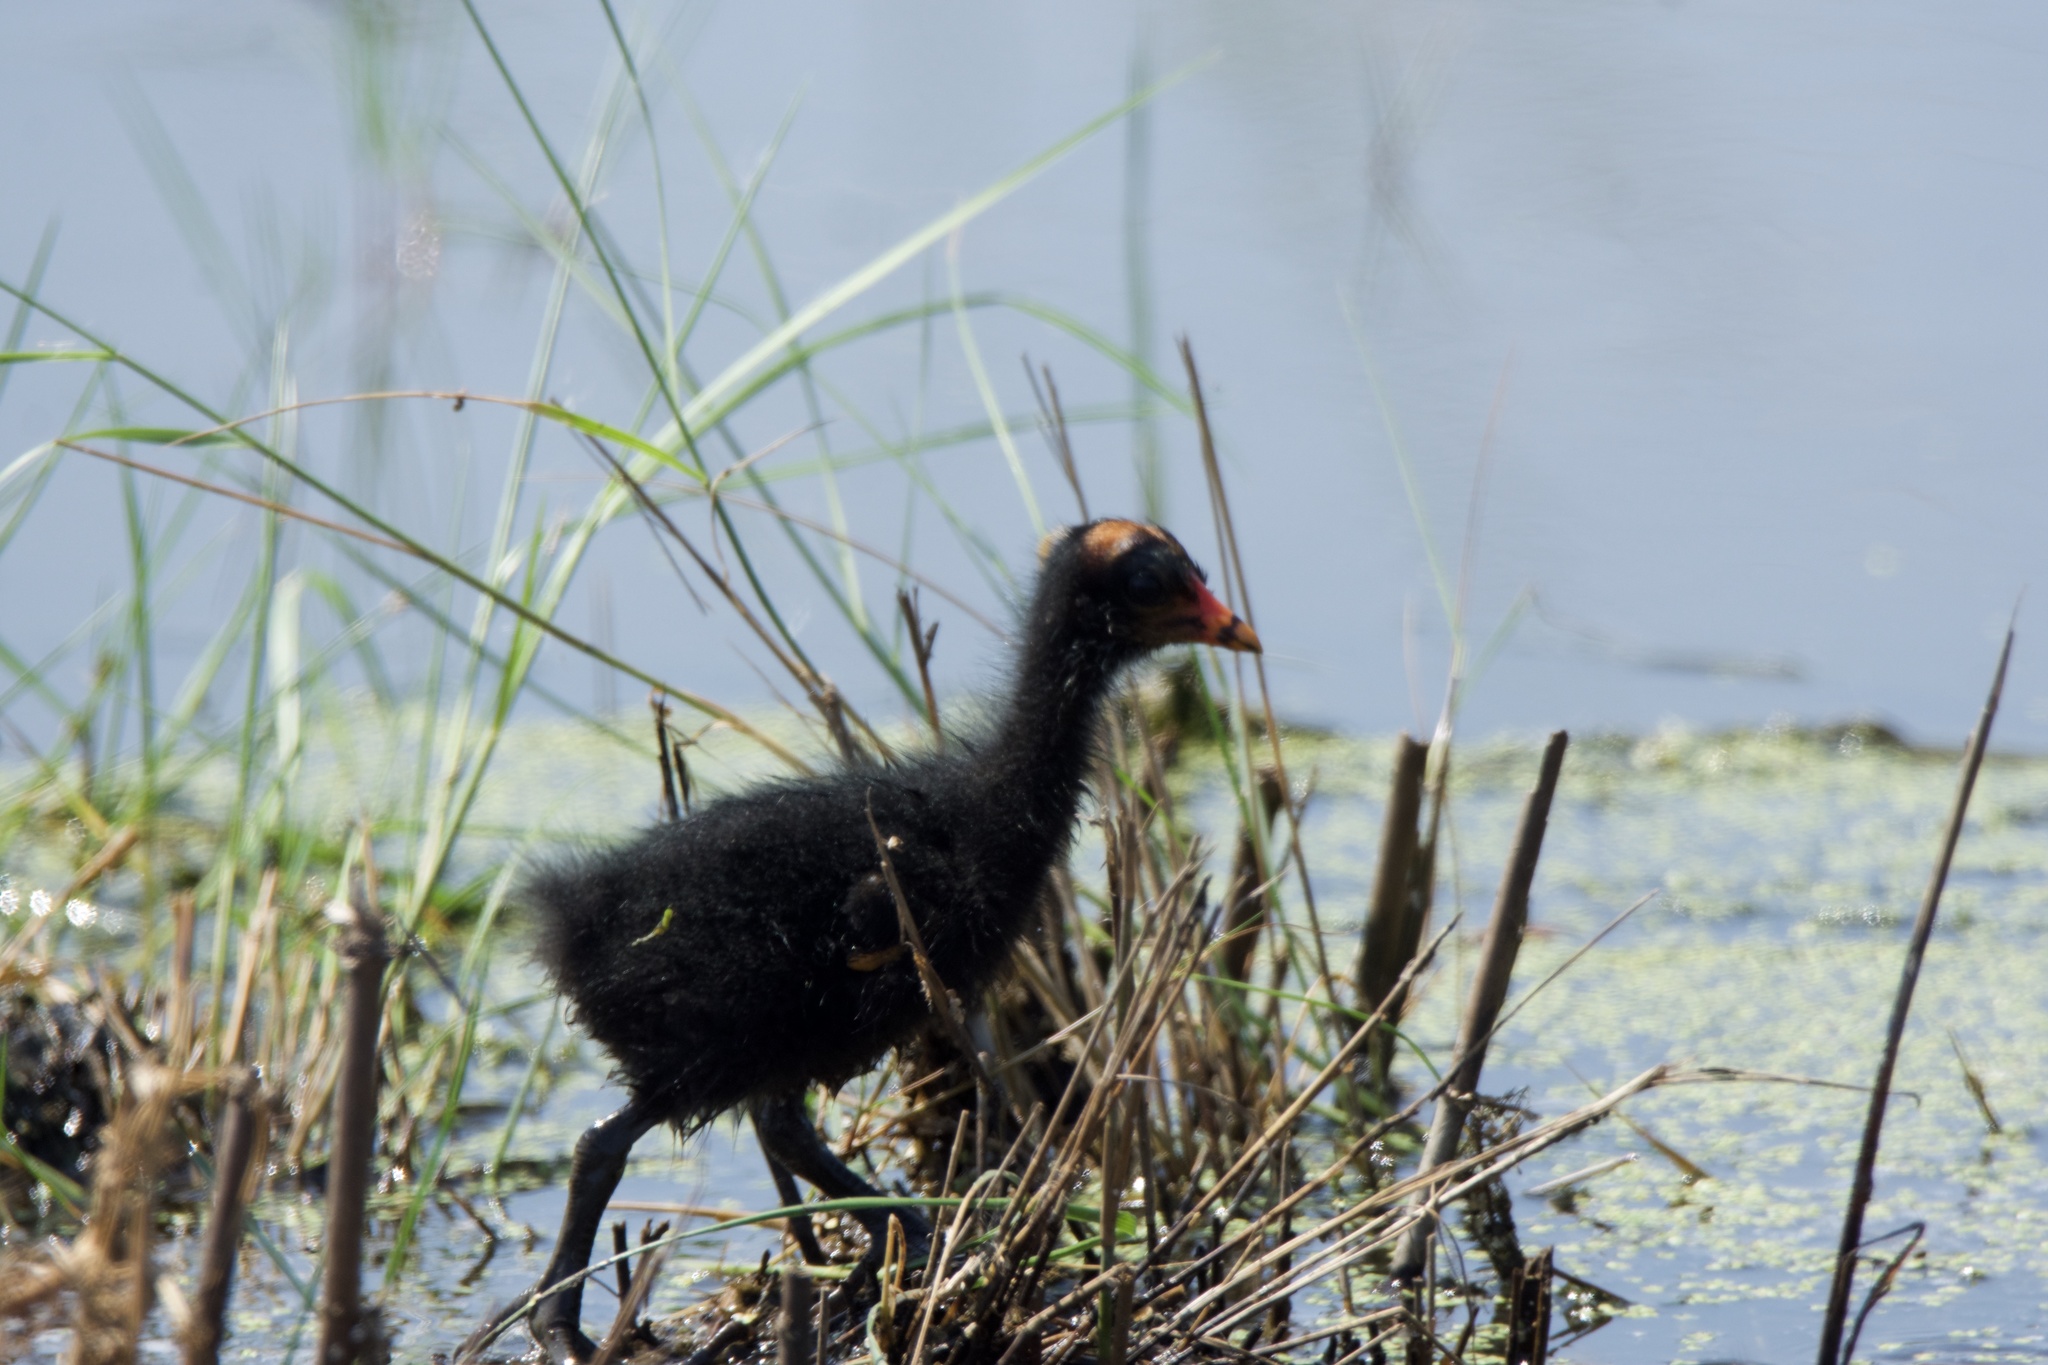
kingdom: Animalia
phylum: Chordata
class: Aves
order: Gruiformes
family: Rallidae
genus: Gallinula
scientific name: Gallinula chloropus
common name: Common moorhen
